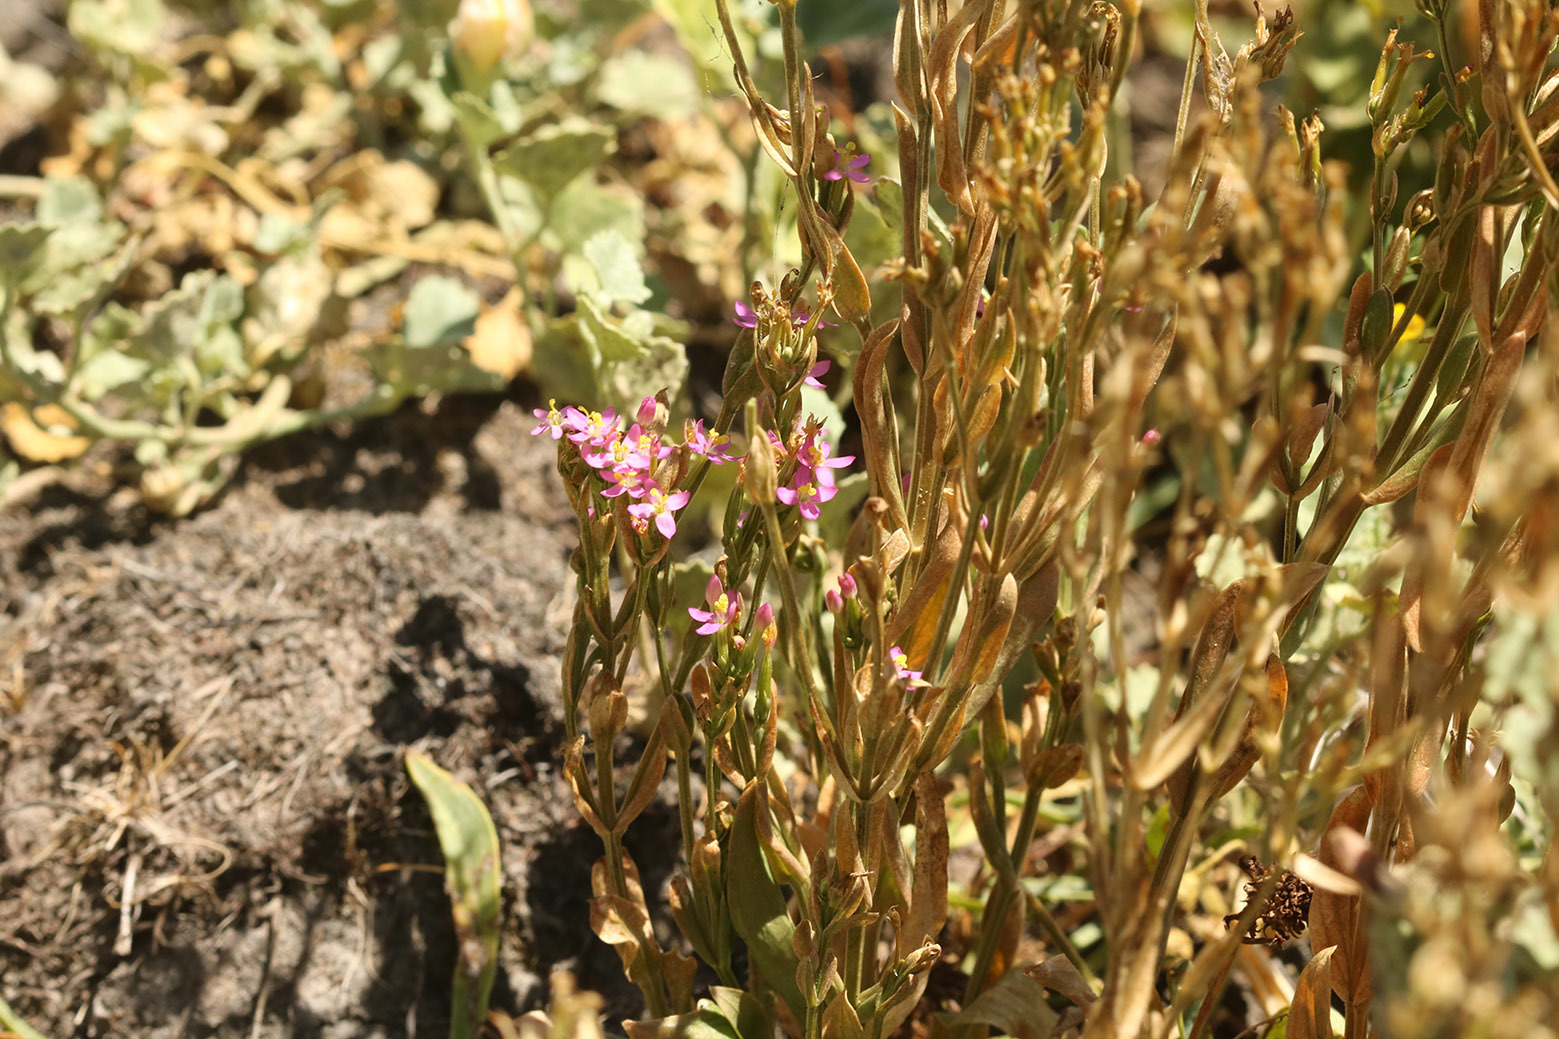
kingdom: Plantae
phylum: Tracheophyta
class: Magnoliopsida
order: Gentianales
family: Gentianaceae
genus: Centaurium
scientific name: Centaurium pulchellum
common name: Lesser centaury
